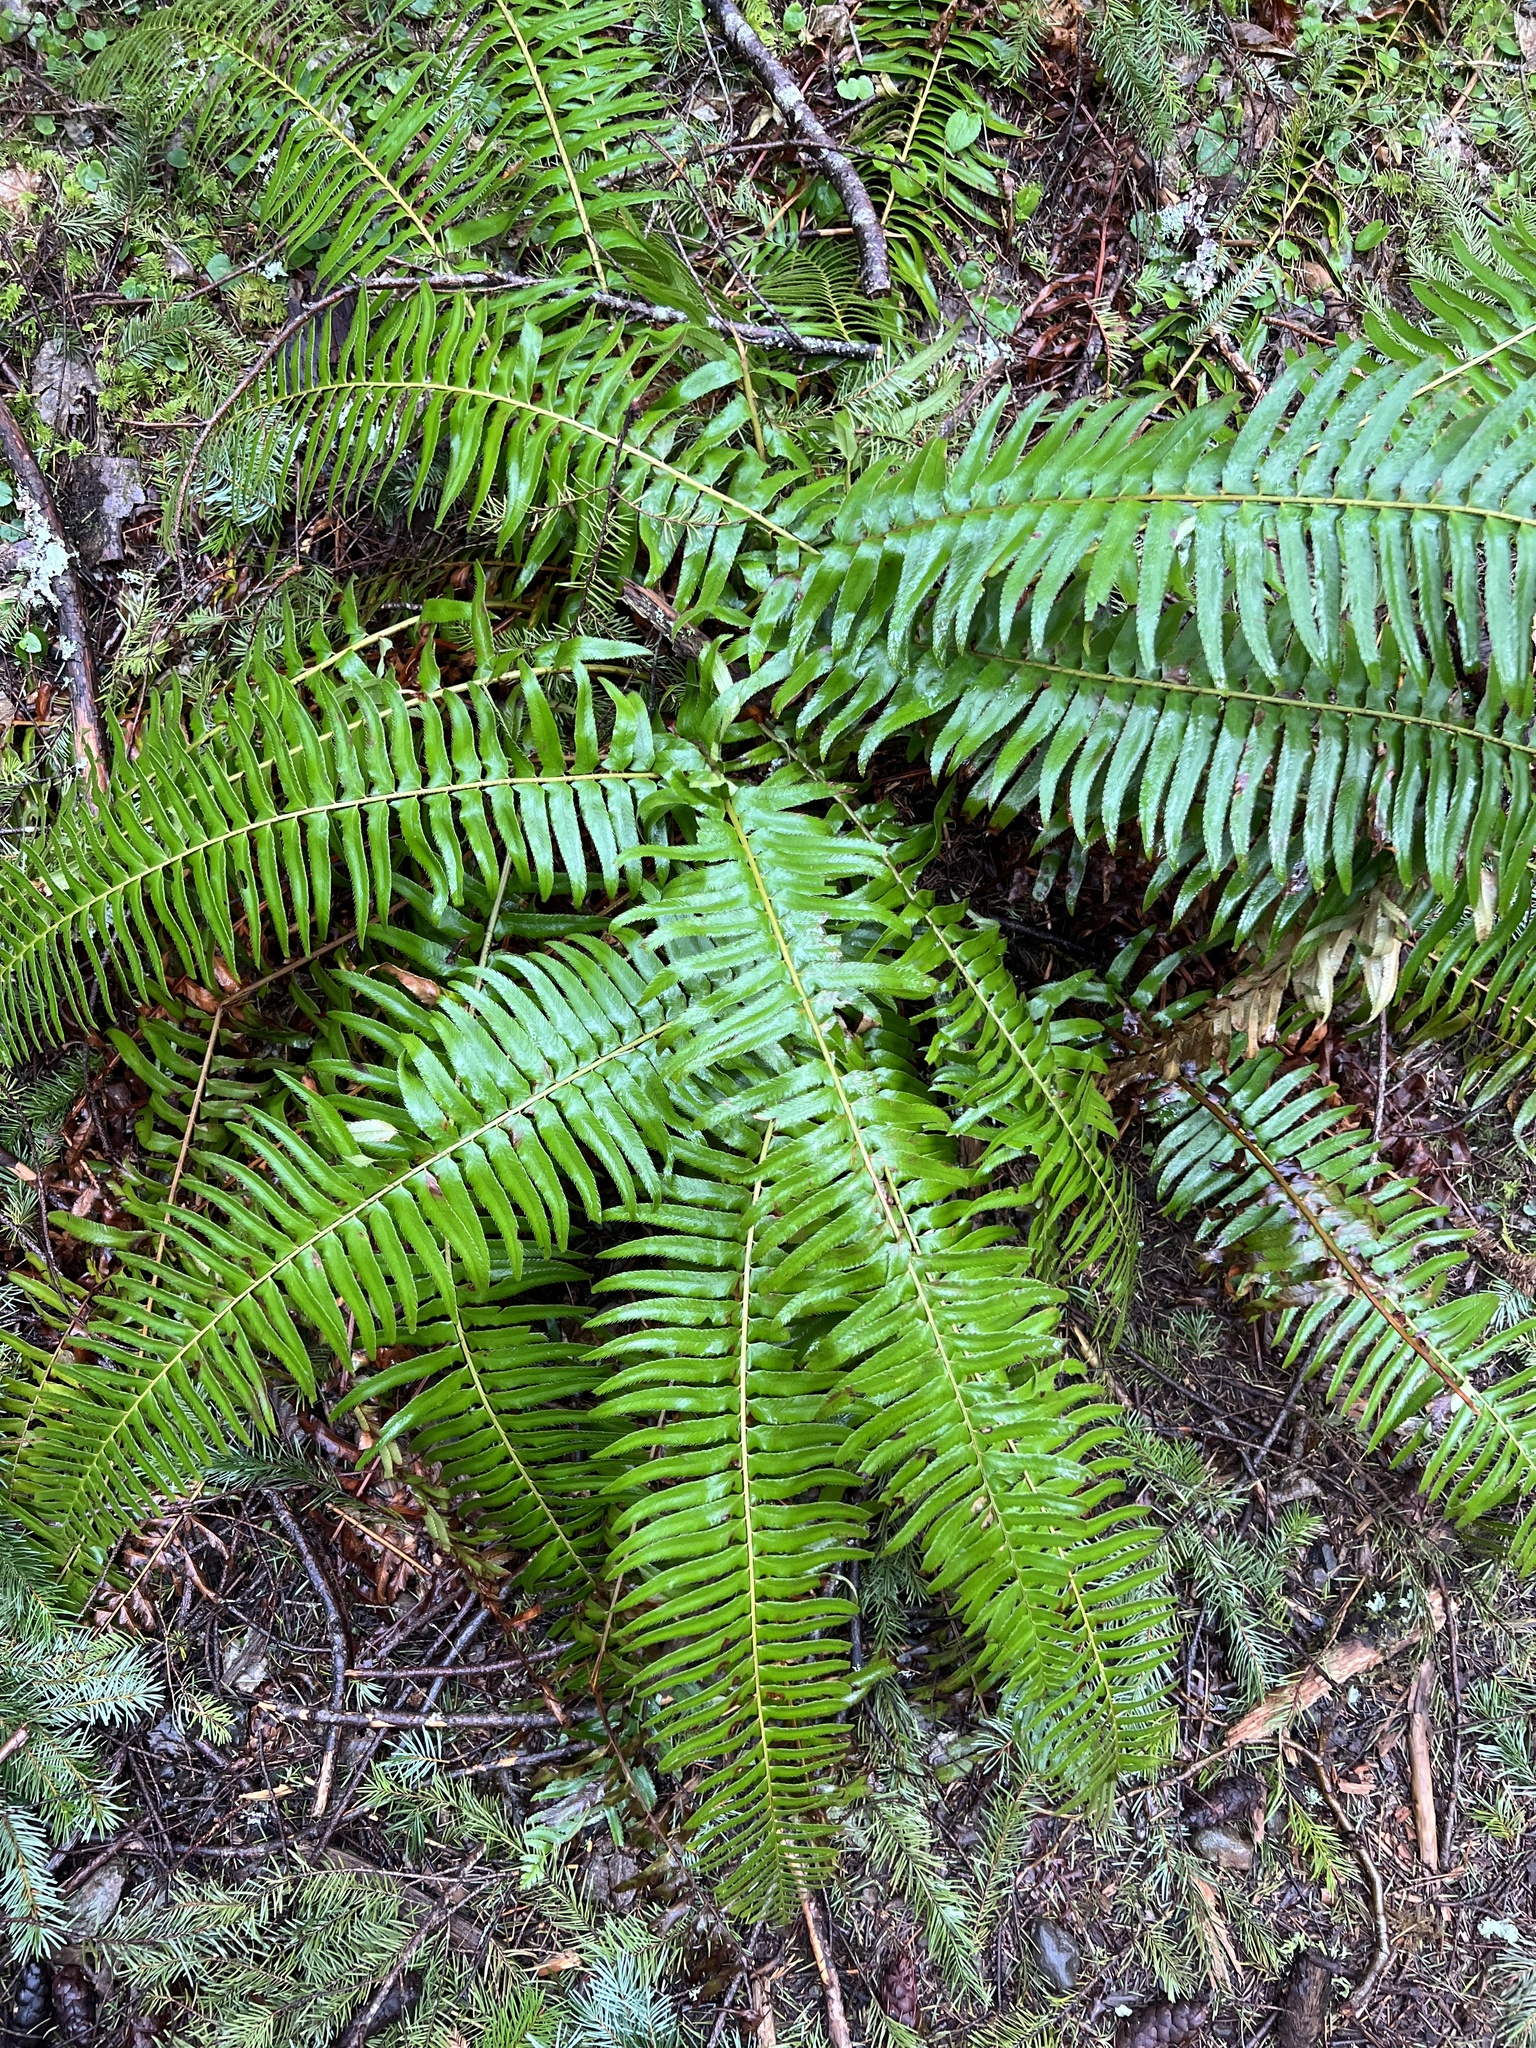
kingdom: Plantae
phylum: Tracheophyta
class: Polypodiopsida
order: Polypodiales
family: Dryopteridaceae
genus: Polystichum
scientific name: Polystichum munitum
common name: Western sword-fern
